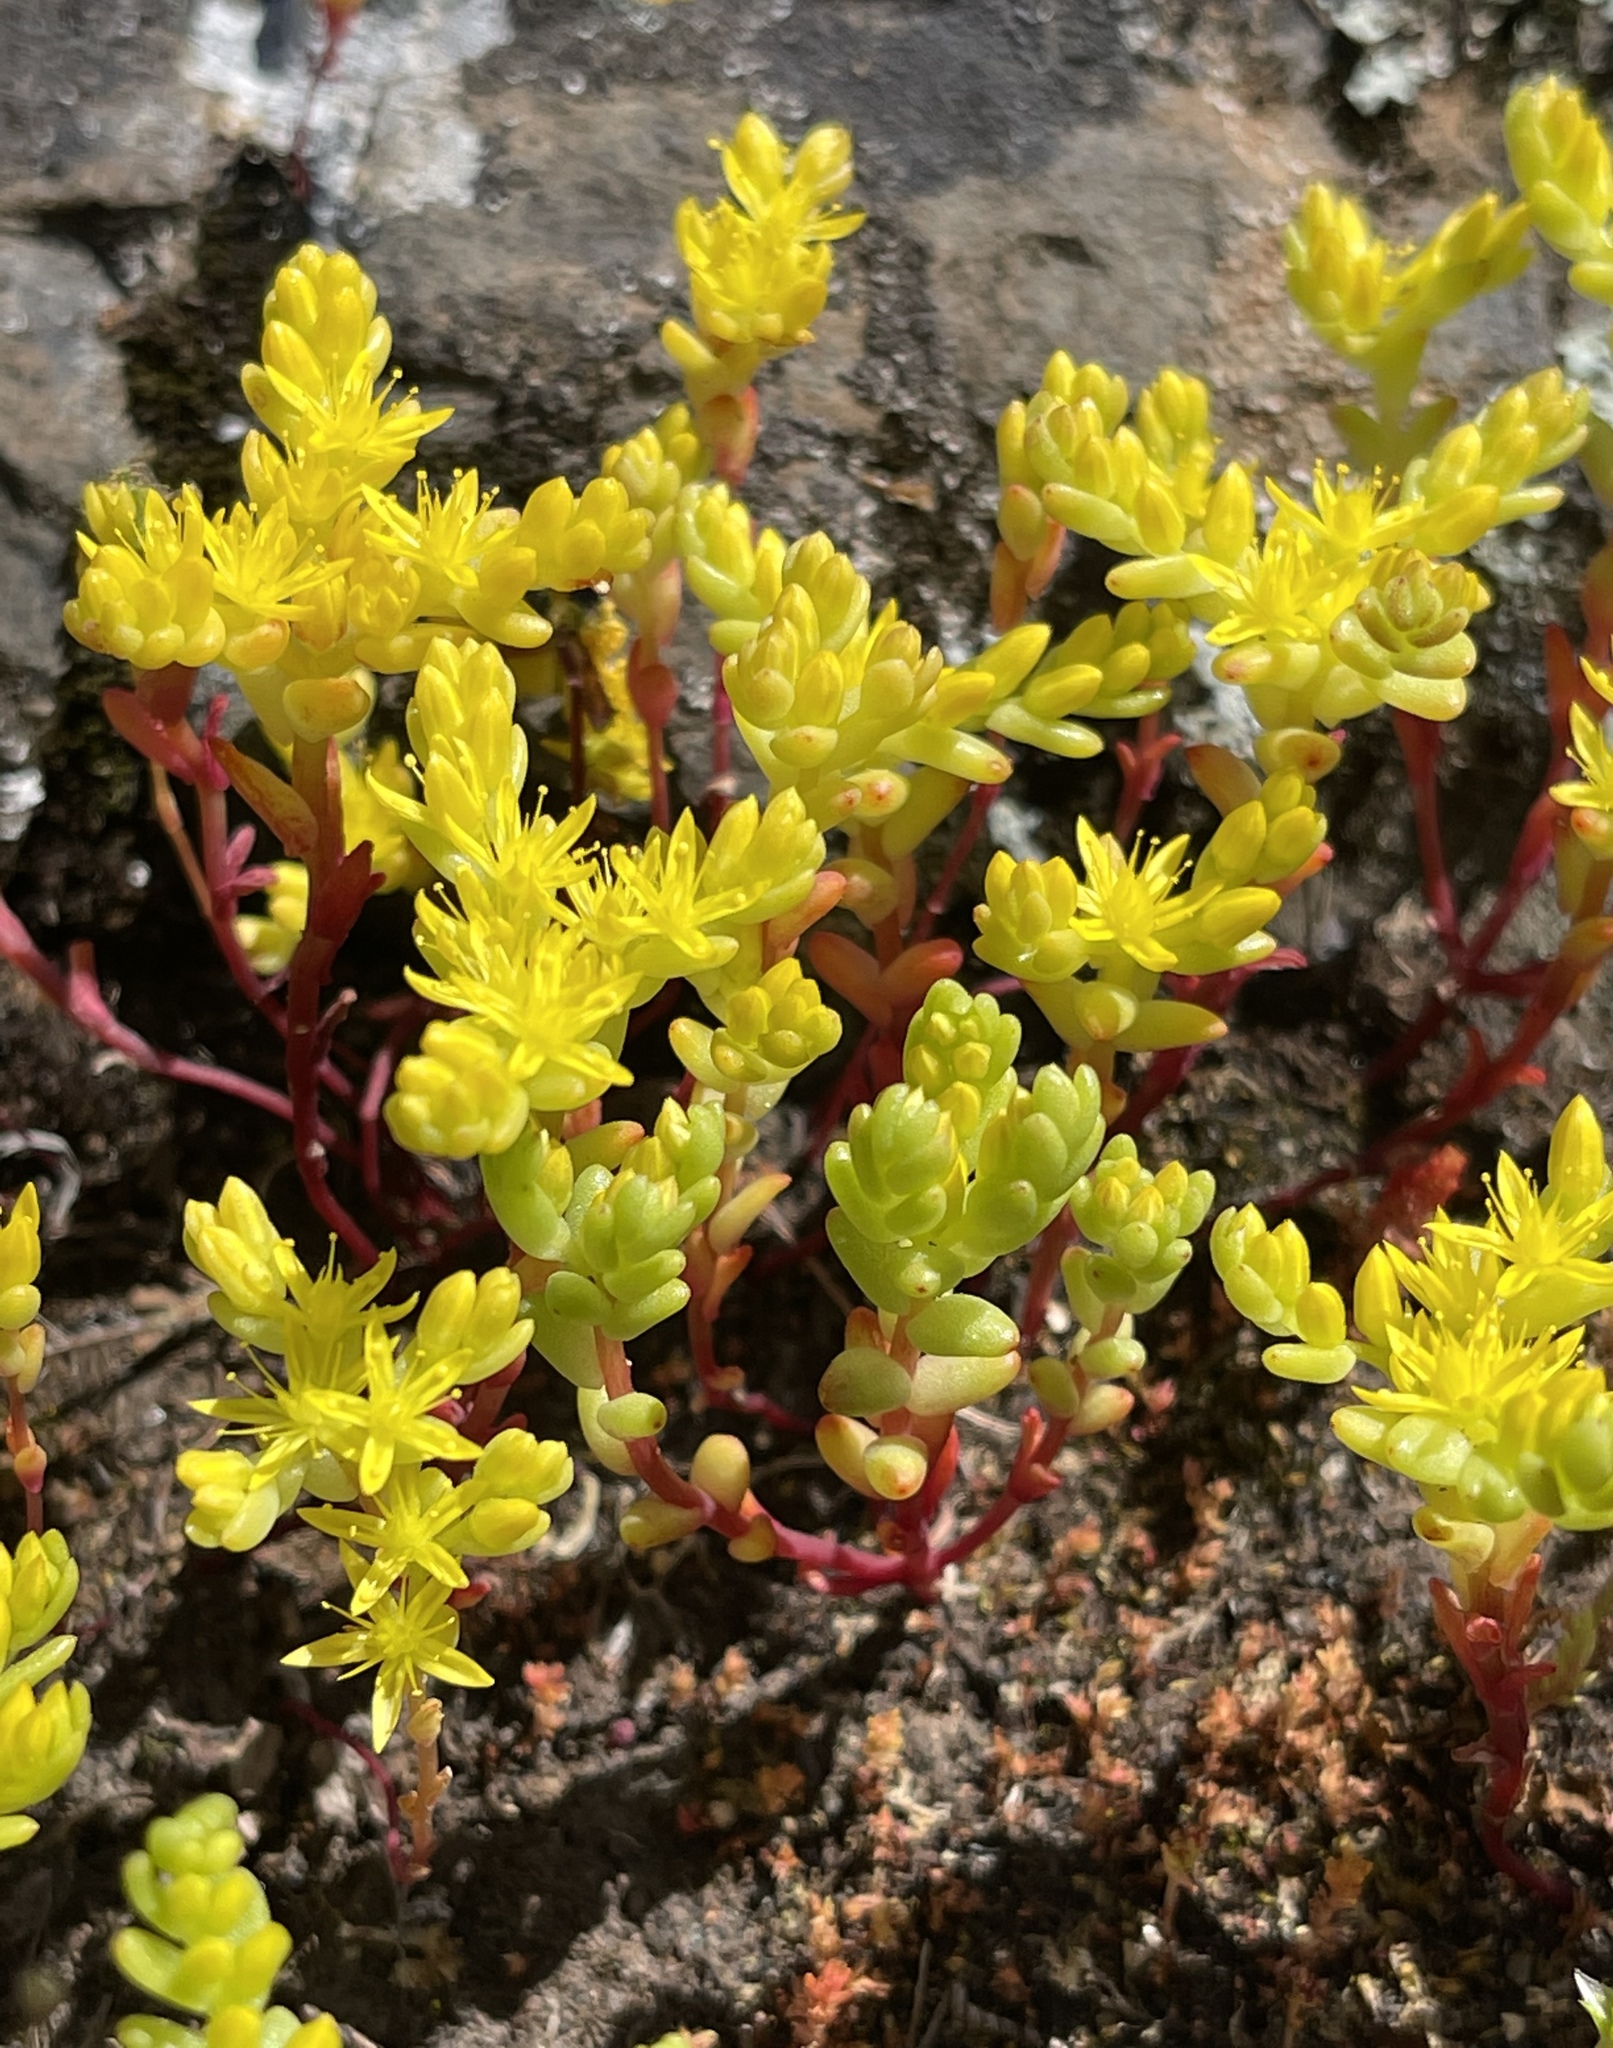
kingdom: Plantae
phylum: Tracheophyta
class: Magnoliopsida
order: Saxifragales
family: Crassulaceae
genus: Sedella
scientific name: Sedella pumila
